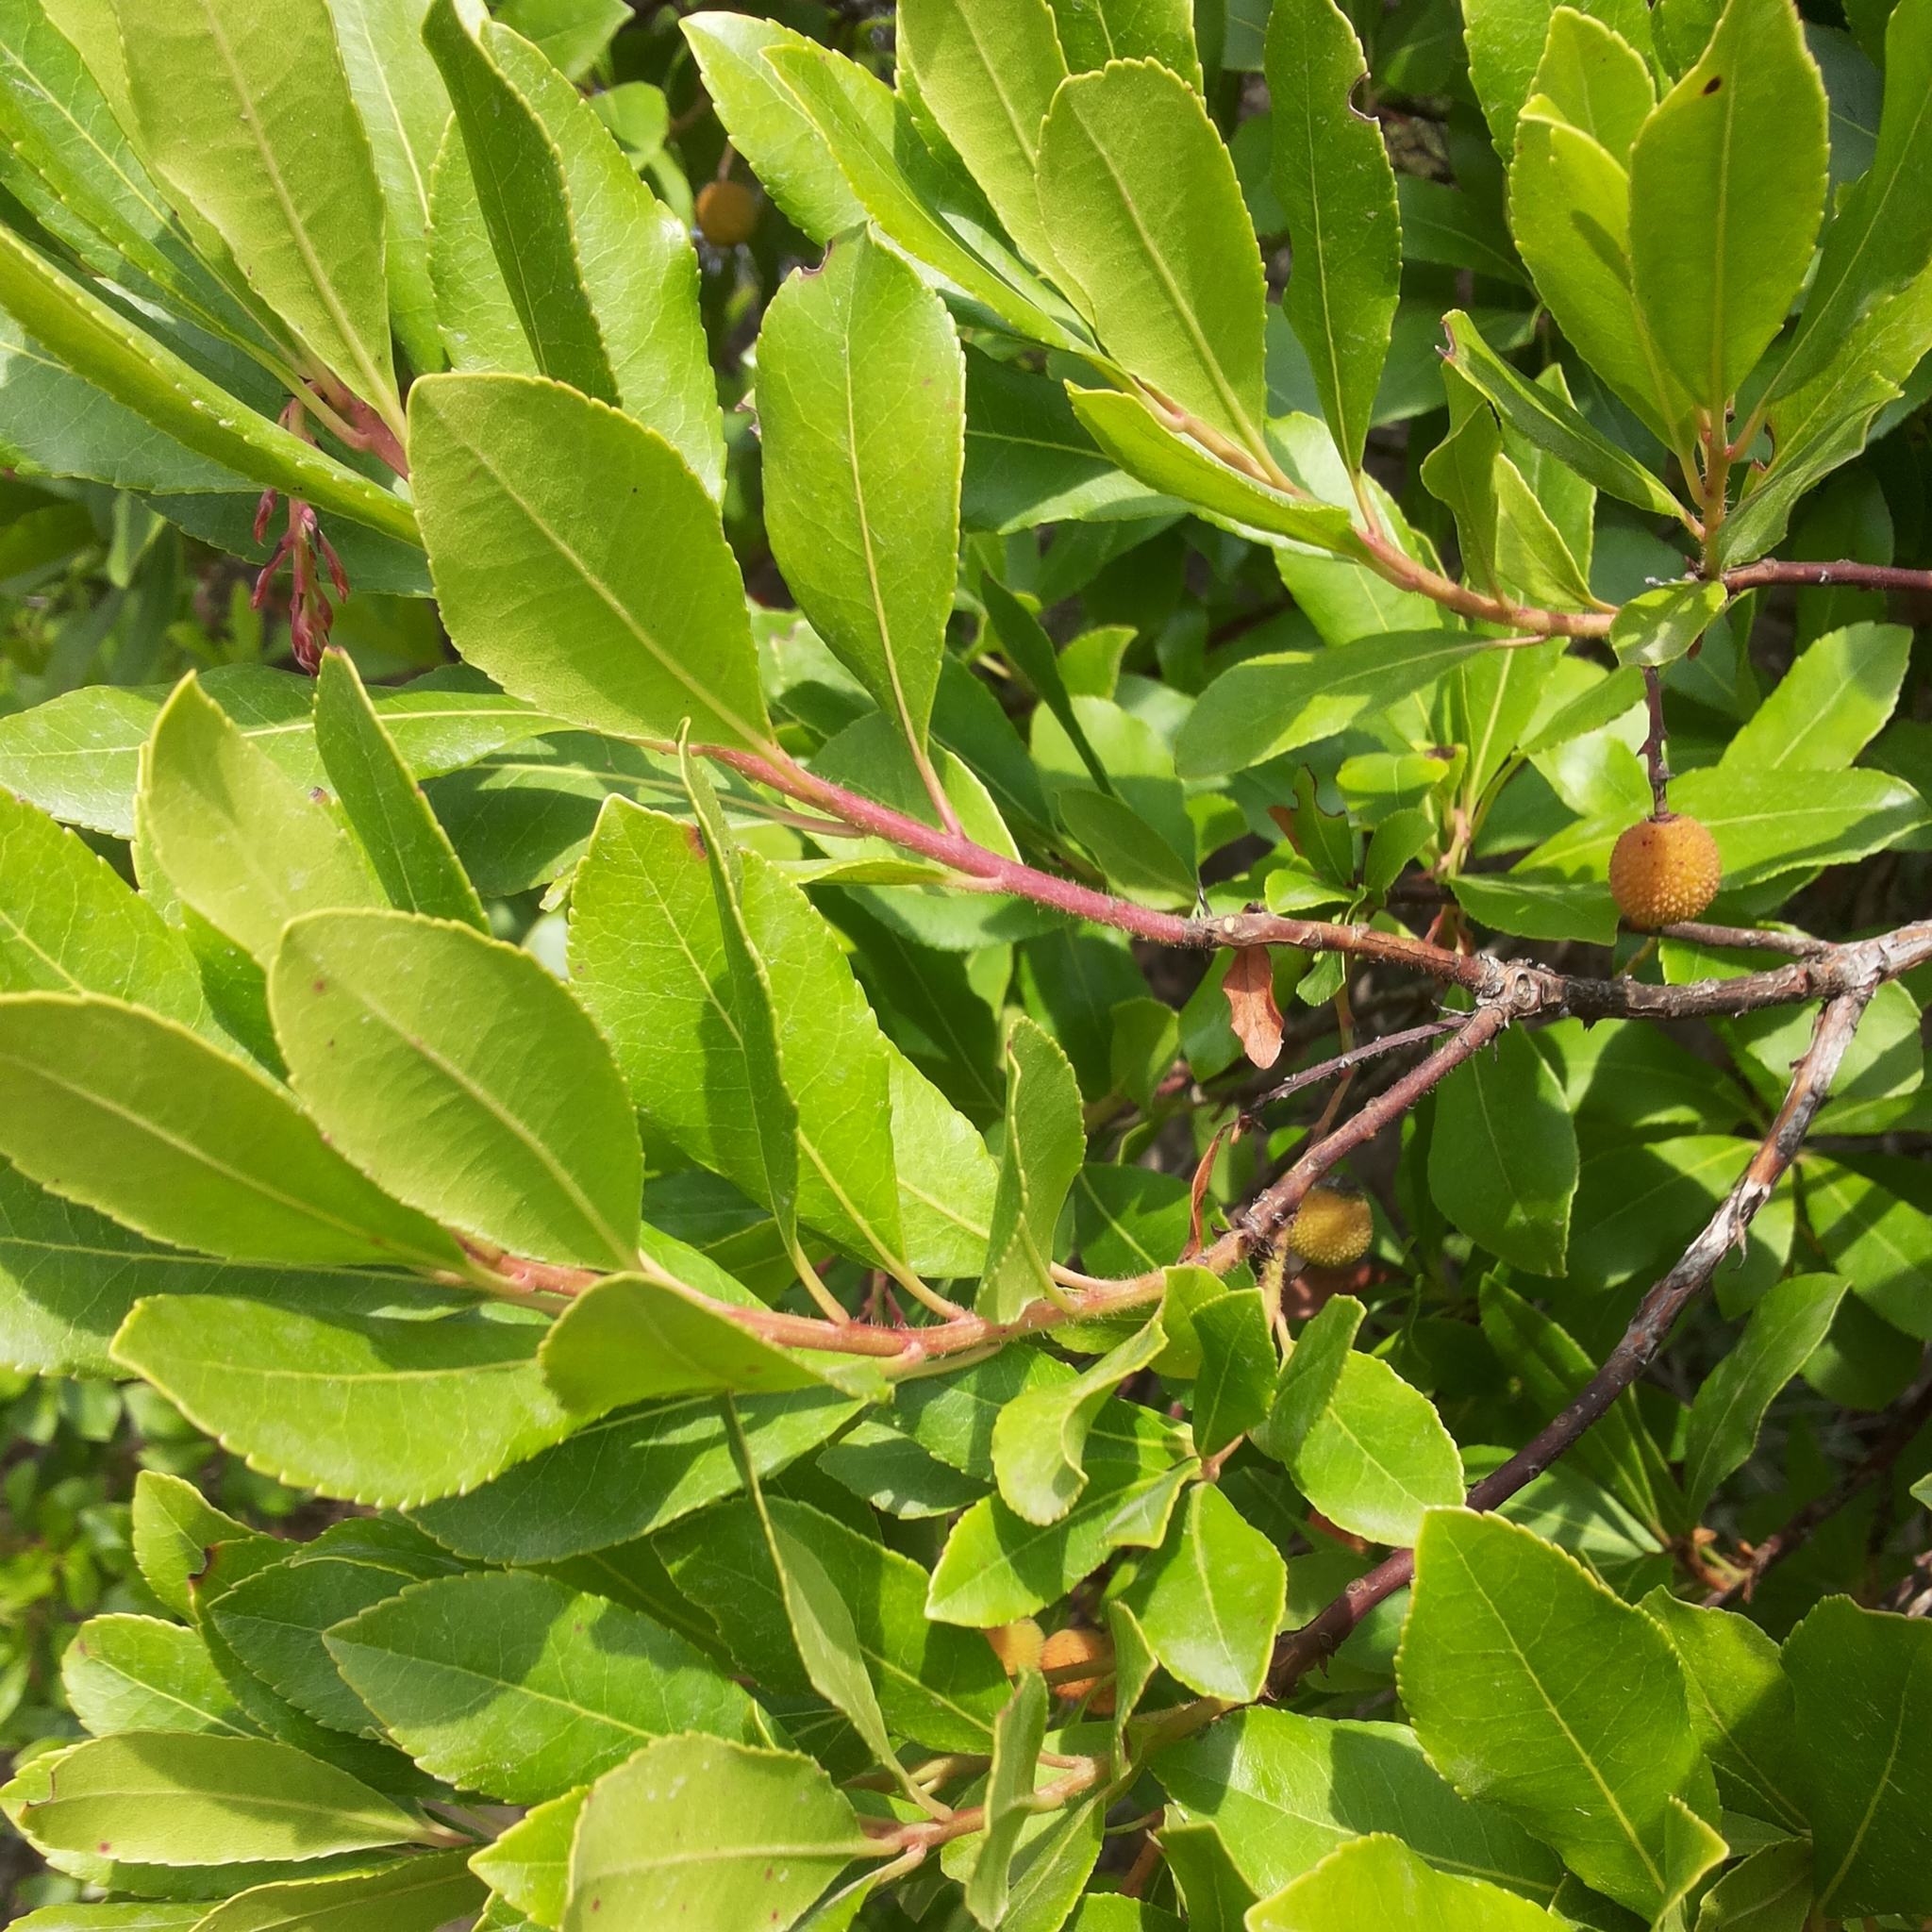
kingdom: Plantae
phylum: Tracheophyta
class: Magnoliopsida
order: Ericales
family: Ericaceae
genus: Arbutus
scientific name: Arbutus unedo
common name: Strawberry-tree
